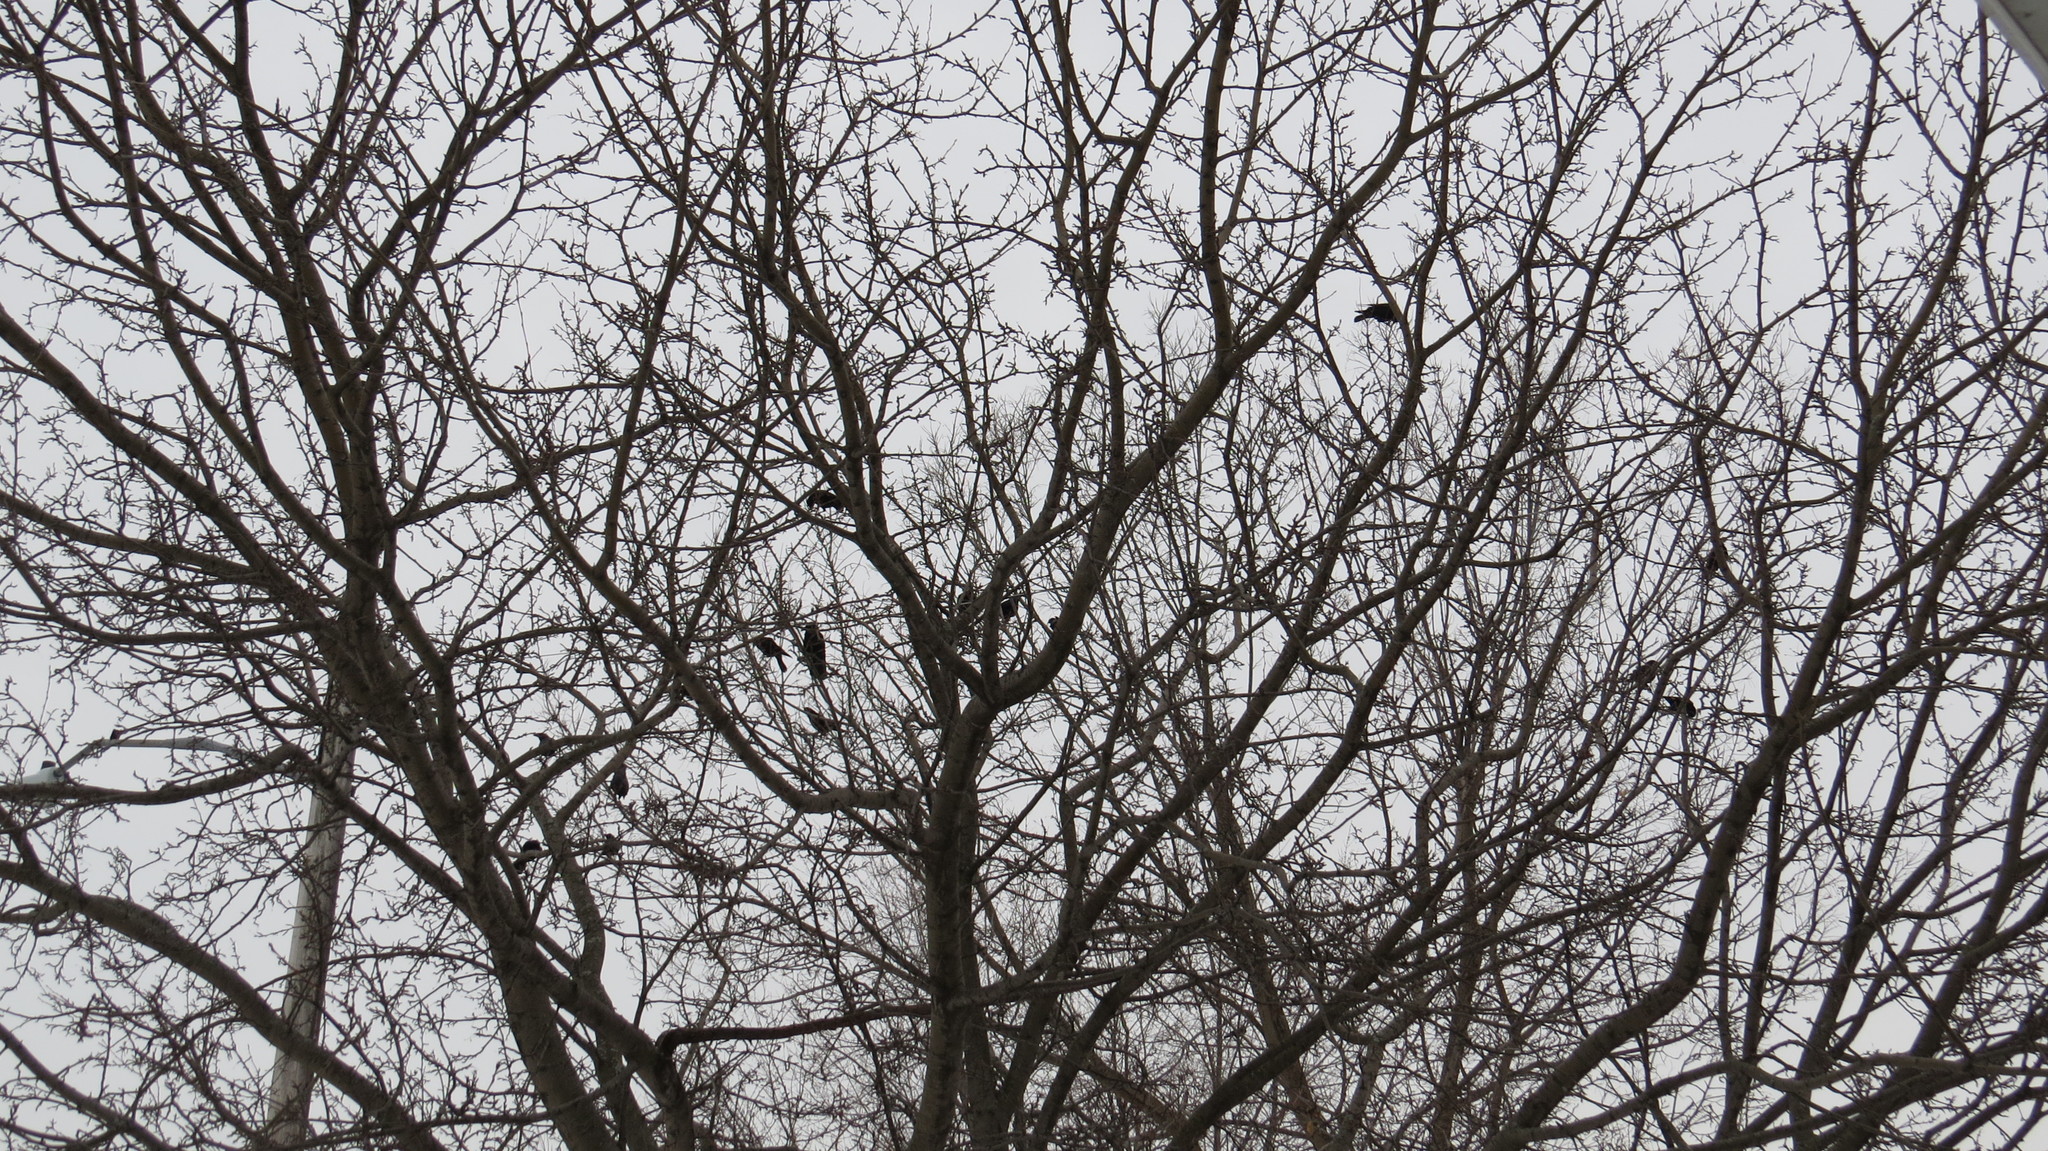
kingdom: Animalia
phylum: Chordata
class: Aves
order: Passeriformes
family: Corvidae
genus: Corvus
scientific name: Corvus brachyrhynchos
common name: American crow
